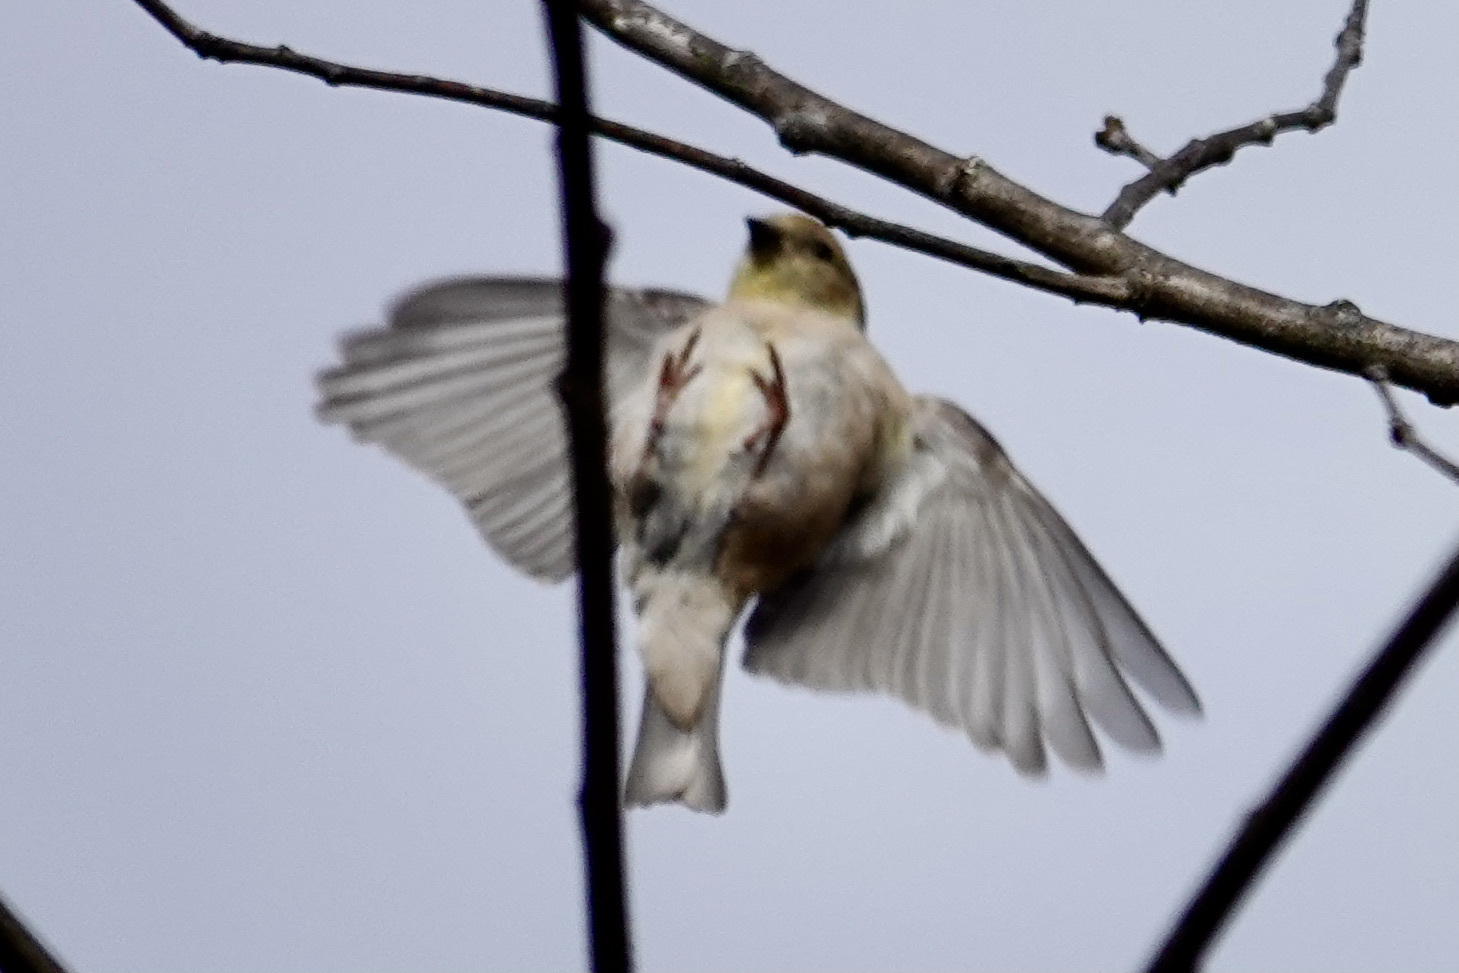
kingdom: Animalia
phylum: Chordata
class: Aves
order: Passeriformes
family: Fringillidae
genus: Spinus
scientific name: Spinus tristis
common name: American goldfinch
